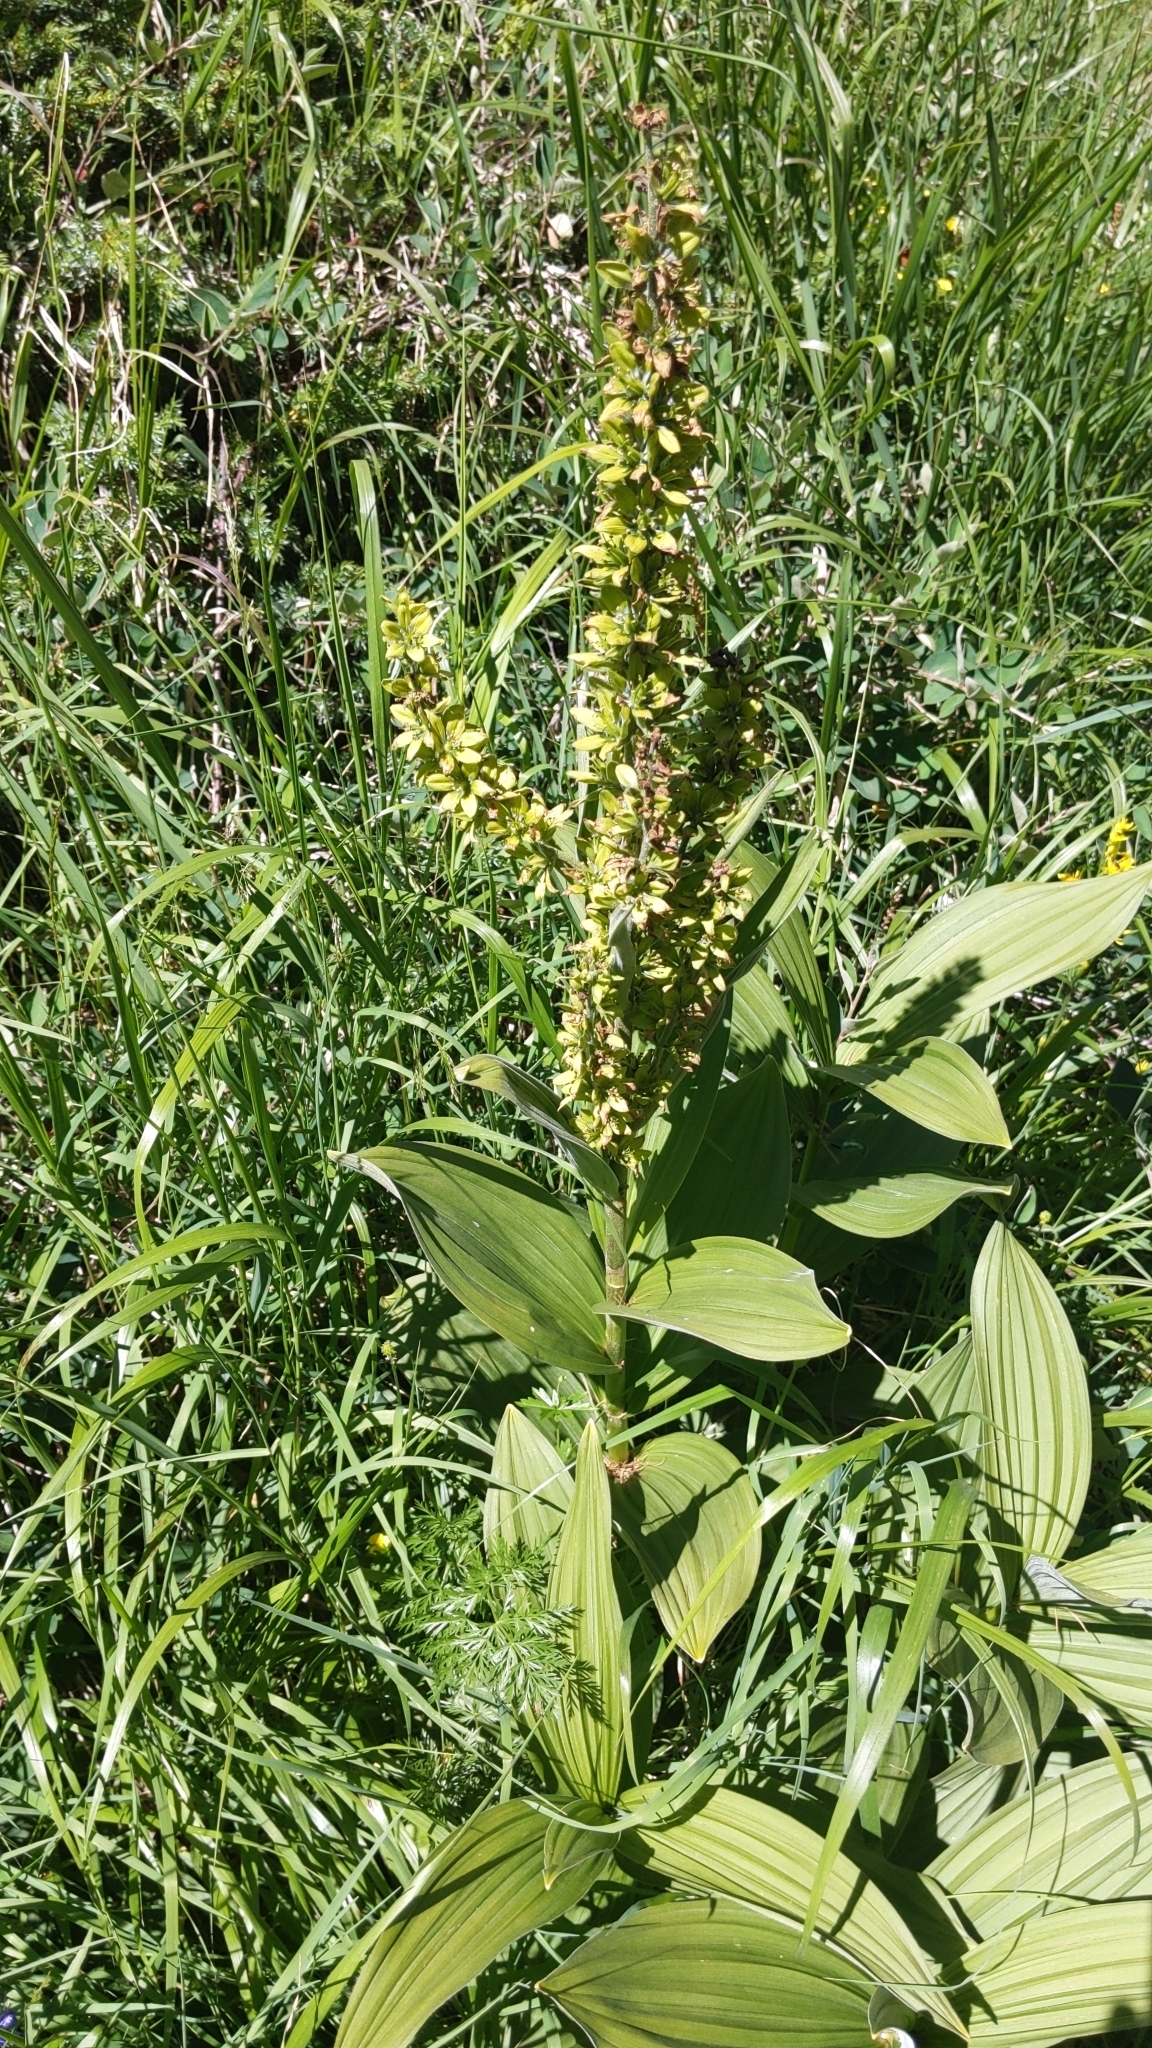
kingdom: Plantae
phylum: Tracheophyta
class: Liliopsida
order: Liliales
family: Melanthiaceae
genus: Veratrum
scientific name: Veratrum lobelianum
